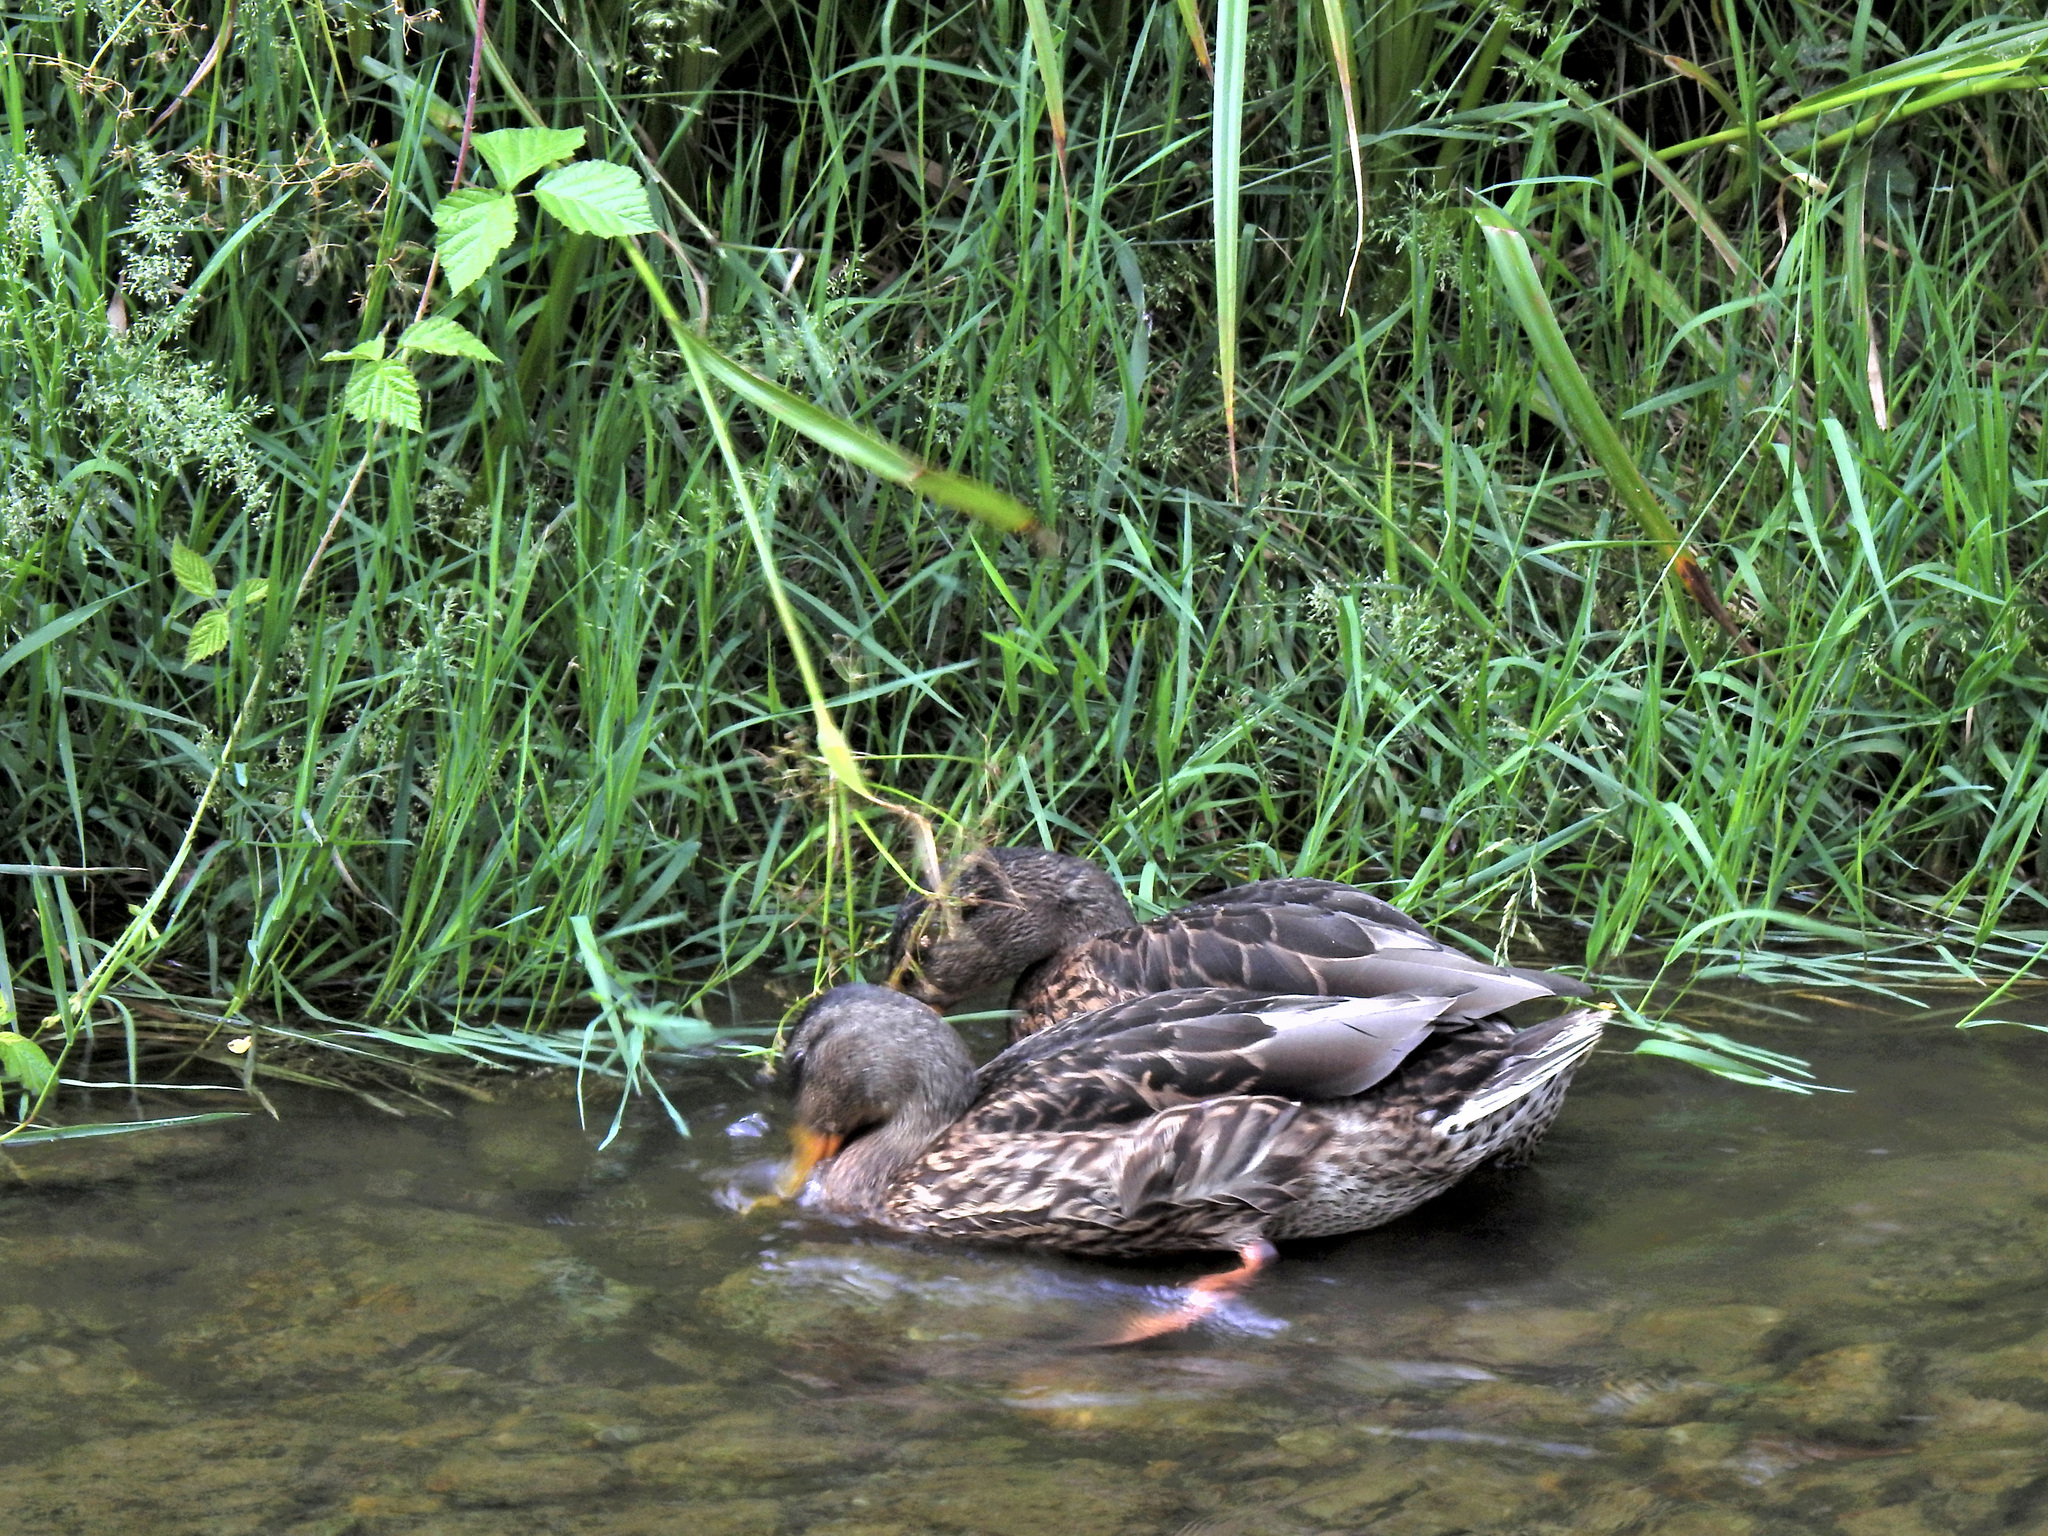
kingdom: Animalia
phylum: Chordata
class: Aves
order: Anseriformes
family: Anatidae
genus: Anas
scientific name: Anas platyrhynchos
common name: Mallard
